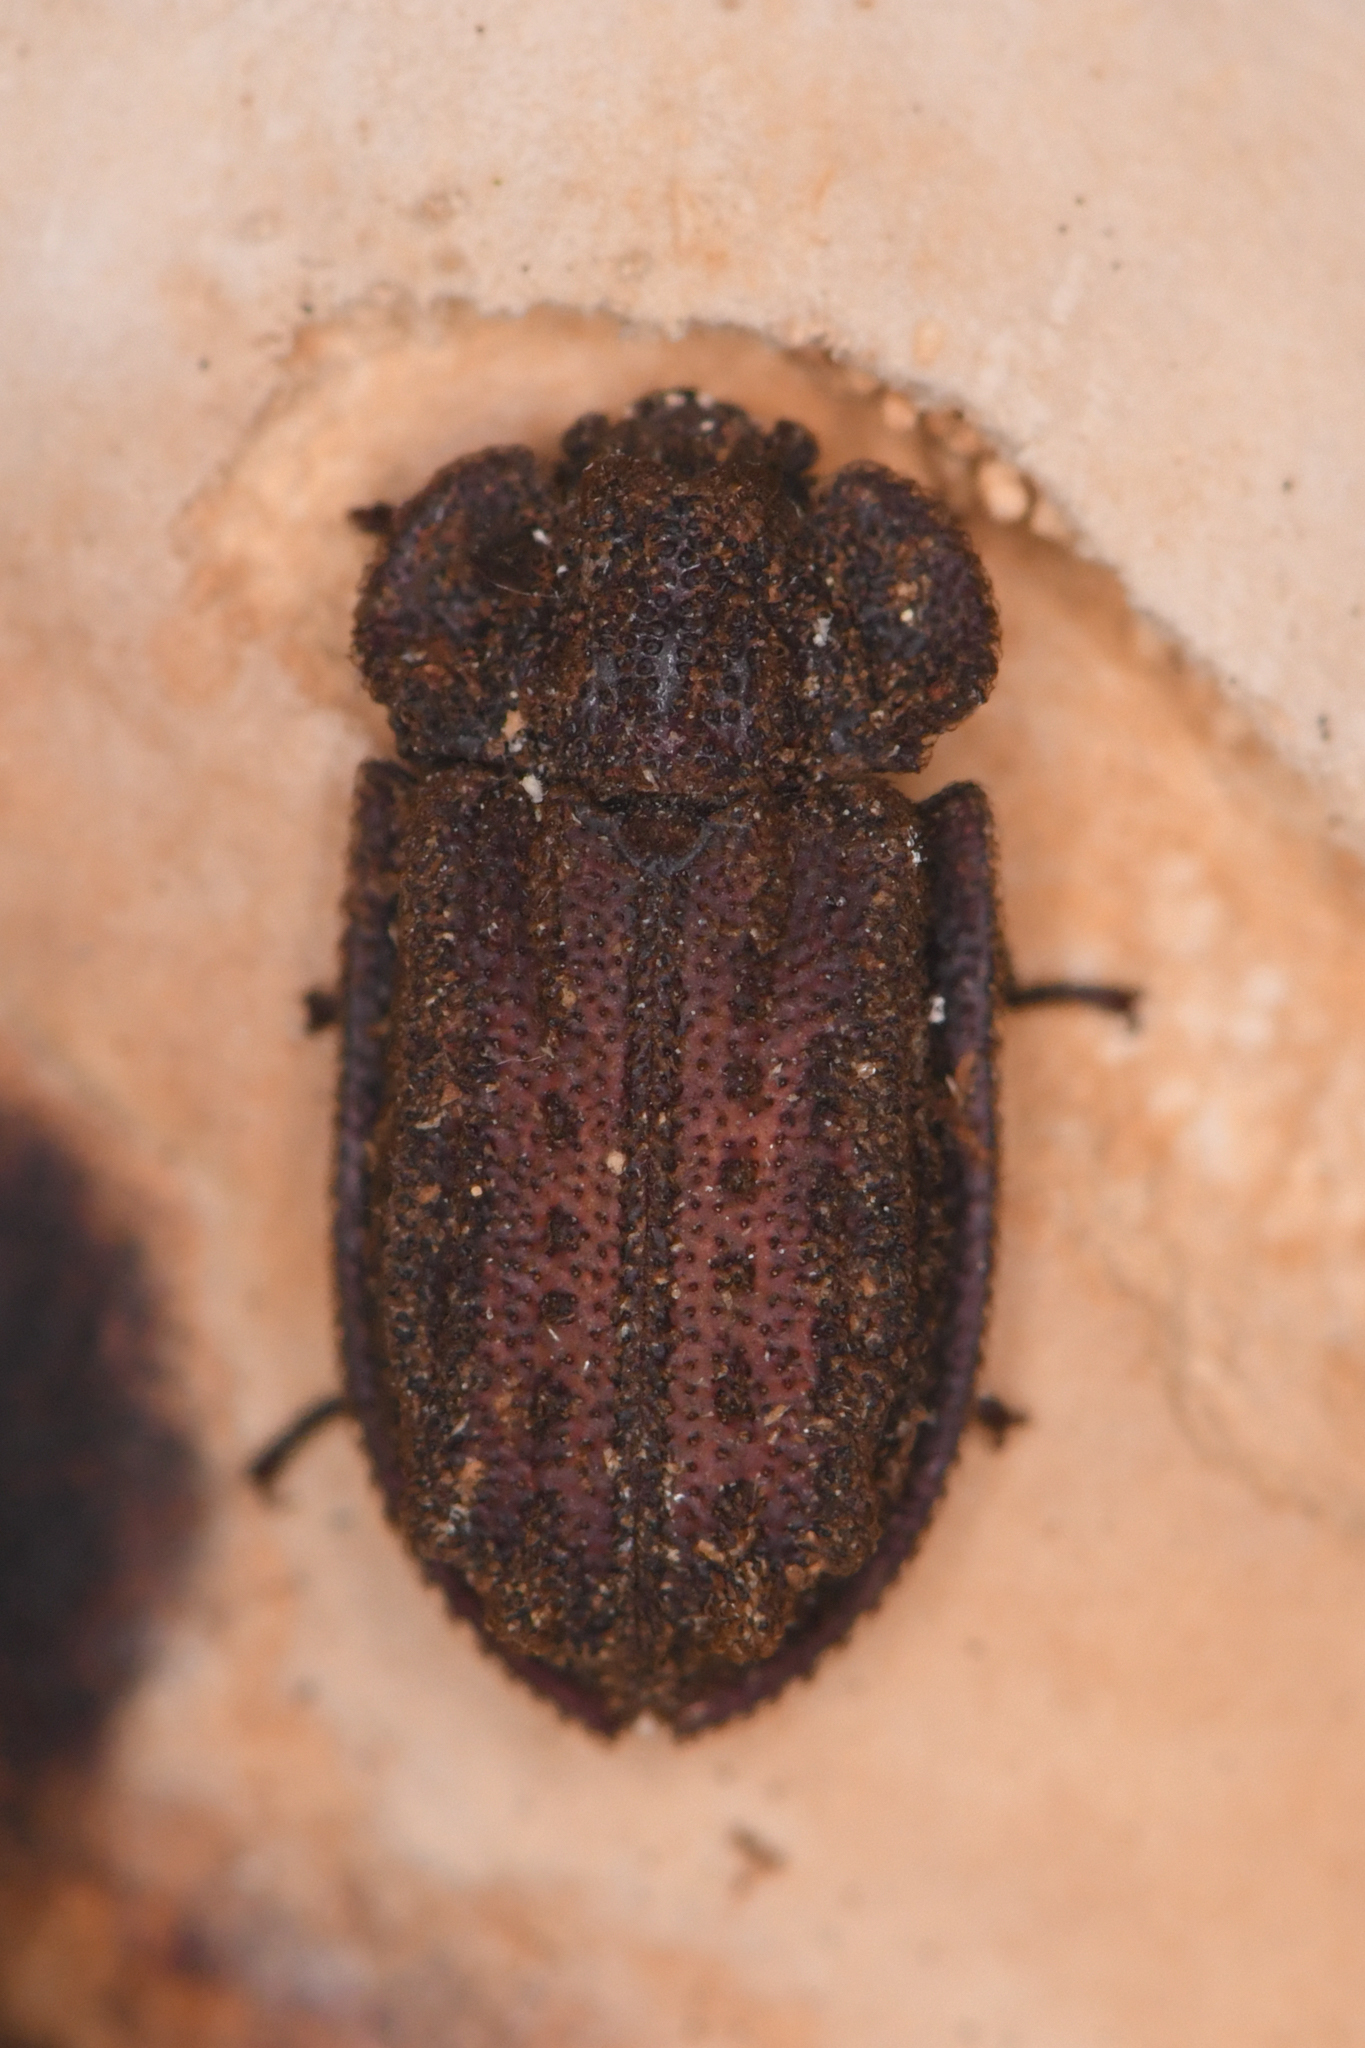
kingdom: Animalia
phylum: Arthropoda
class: Insecta
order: Coleoptera
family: Trogossitidae
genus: Calitys
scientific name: Calitys scabra
